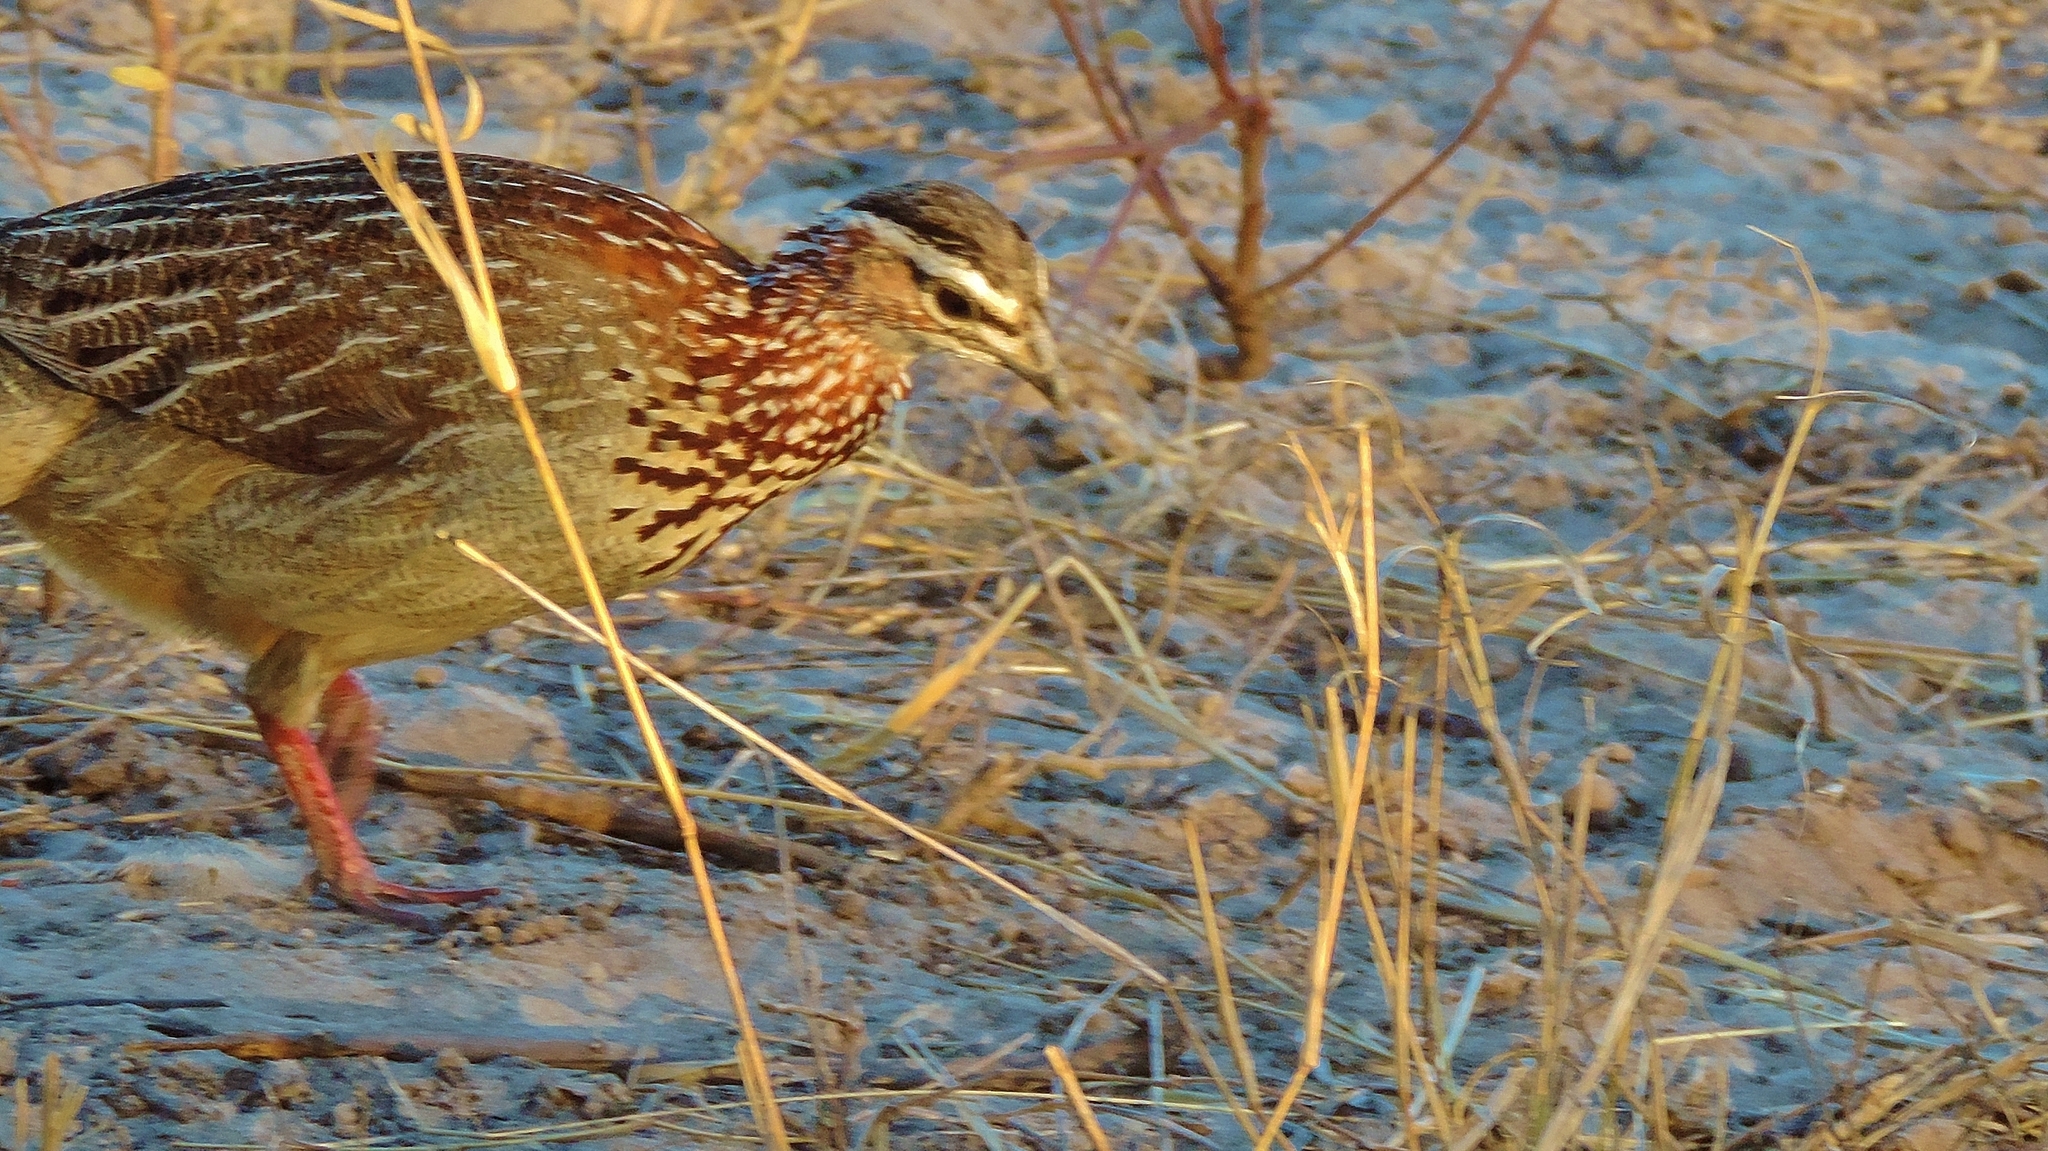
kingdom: Animalia
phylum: Chordata
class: Aves
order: Galliformes
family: Phasianidae
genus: Ortygornis
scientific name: Ortygornis sephaena
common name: Crested francolin
